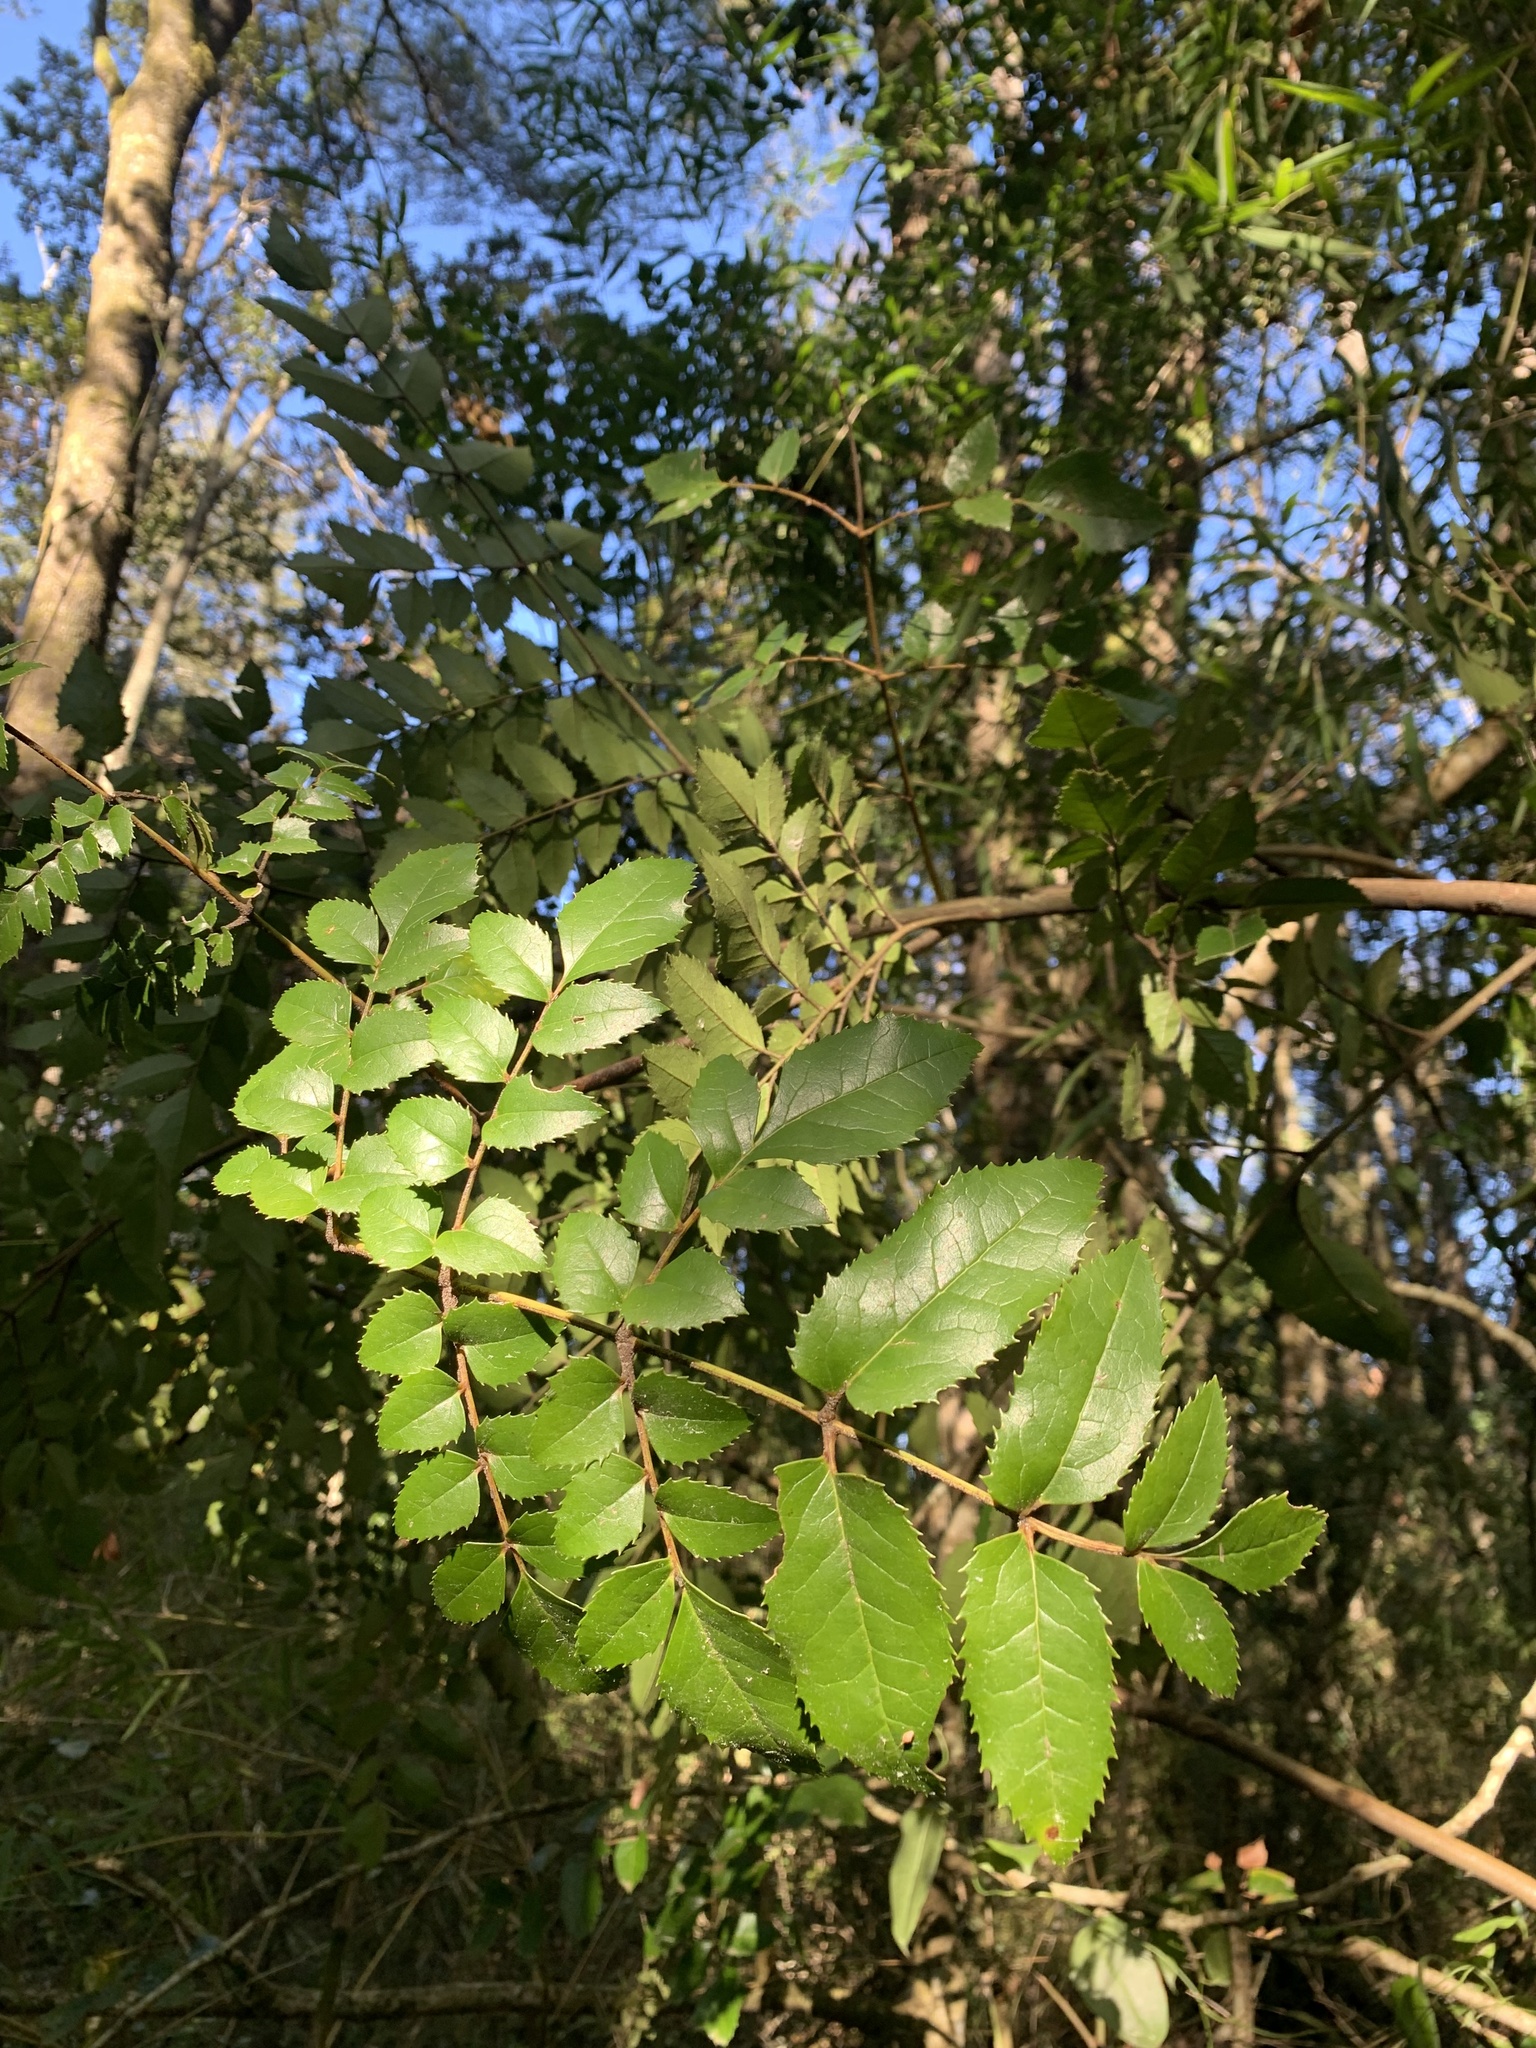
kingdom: Plantae
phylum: Tracheophyta
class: Magnoliopsida
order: Proteales
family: Proteaceae
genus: Gevuina
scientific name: Gevuina avellana
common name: Chilean hazel
